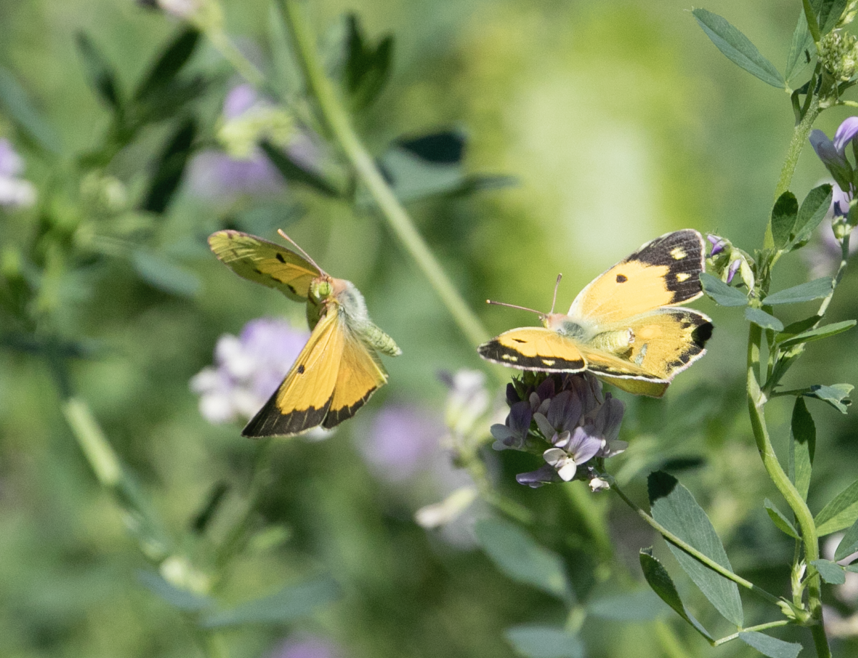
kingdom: Animalia
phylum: Arthropoda
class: Insecta
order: Lepidoptera
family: Pieridae
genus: Colias
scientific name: Colias croceus
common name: Clouded yellow
